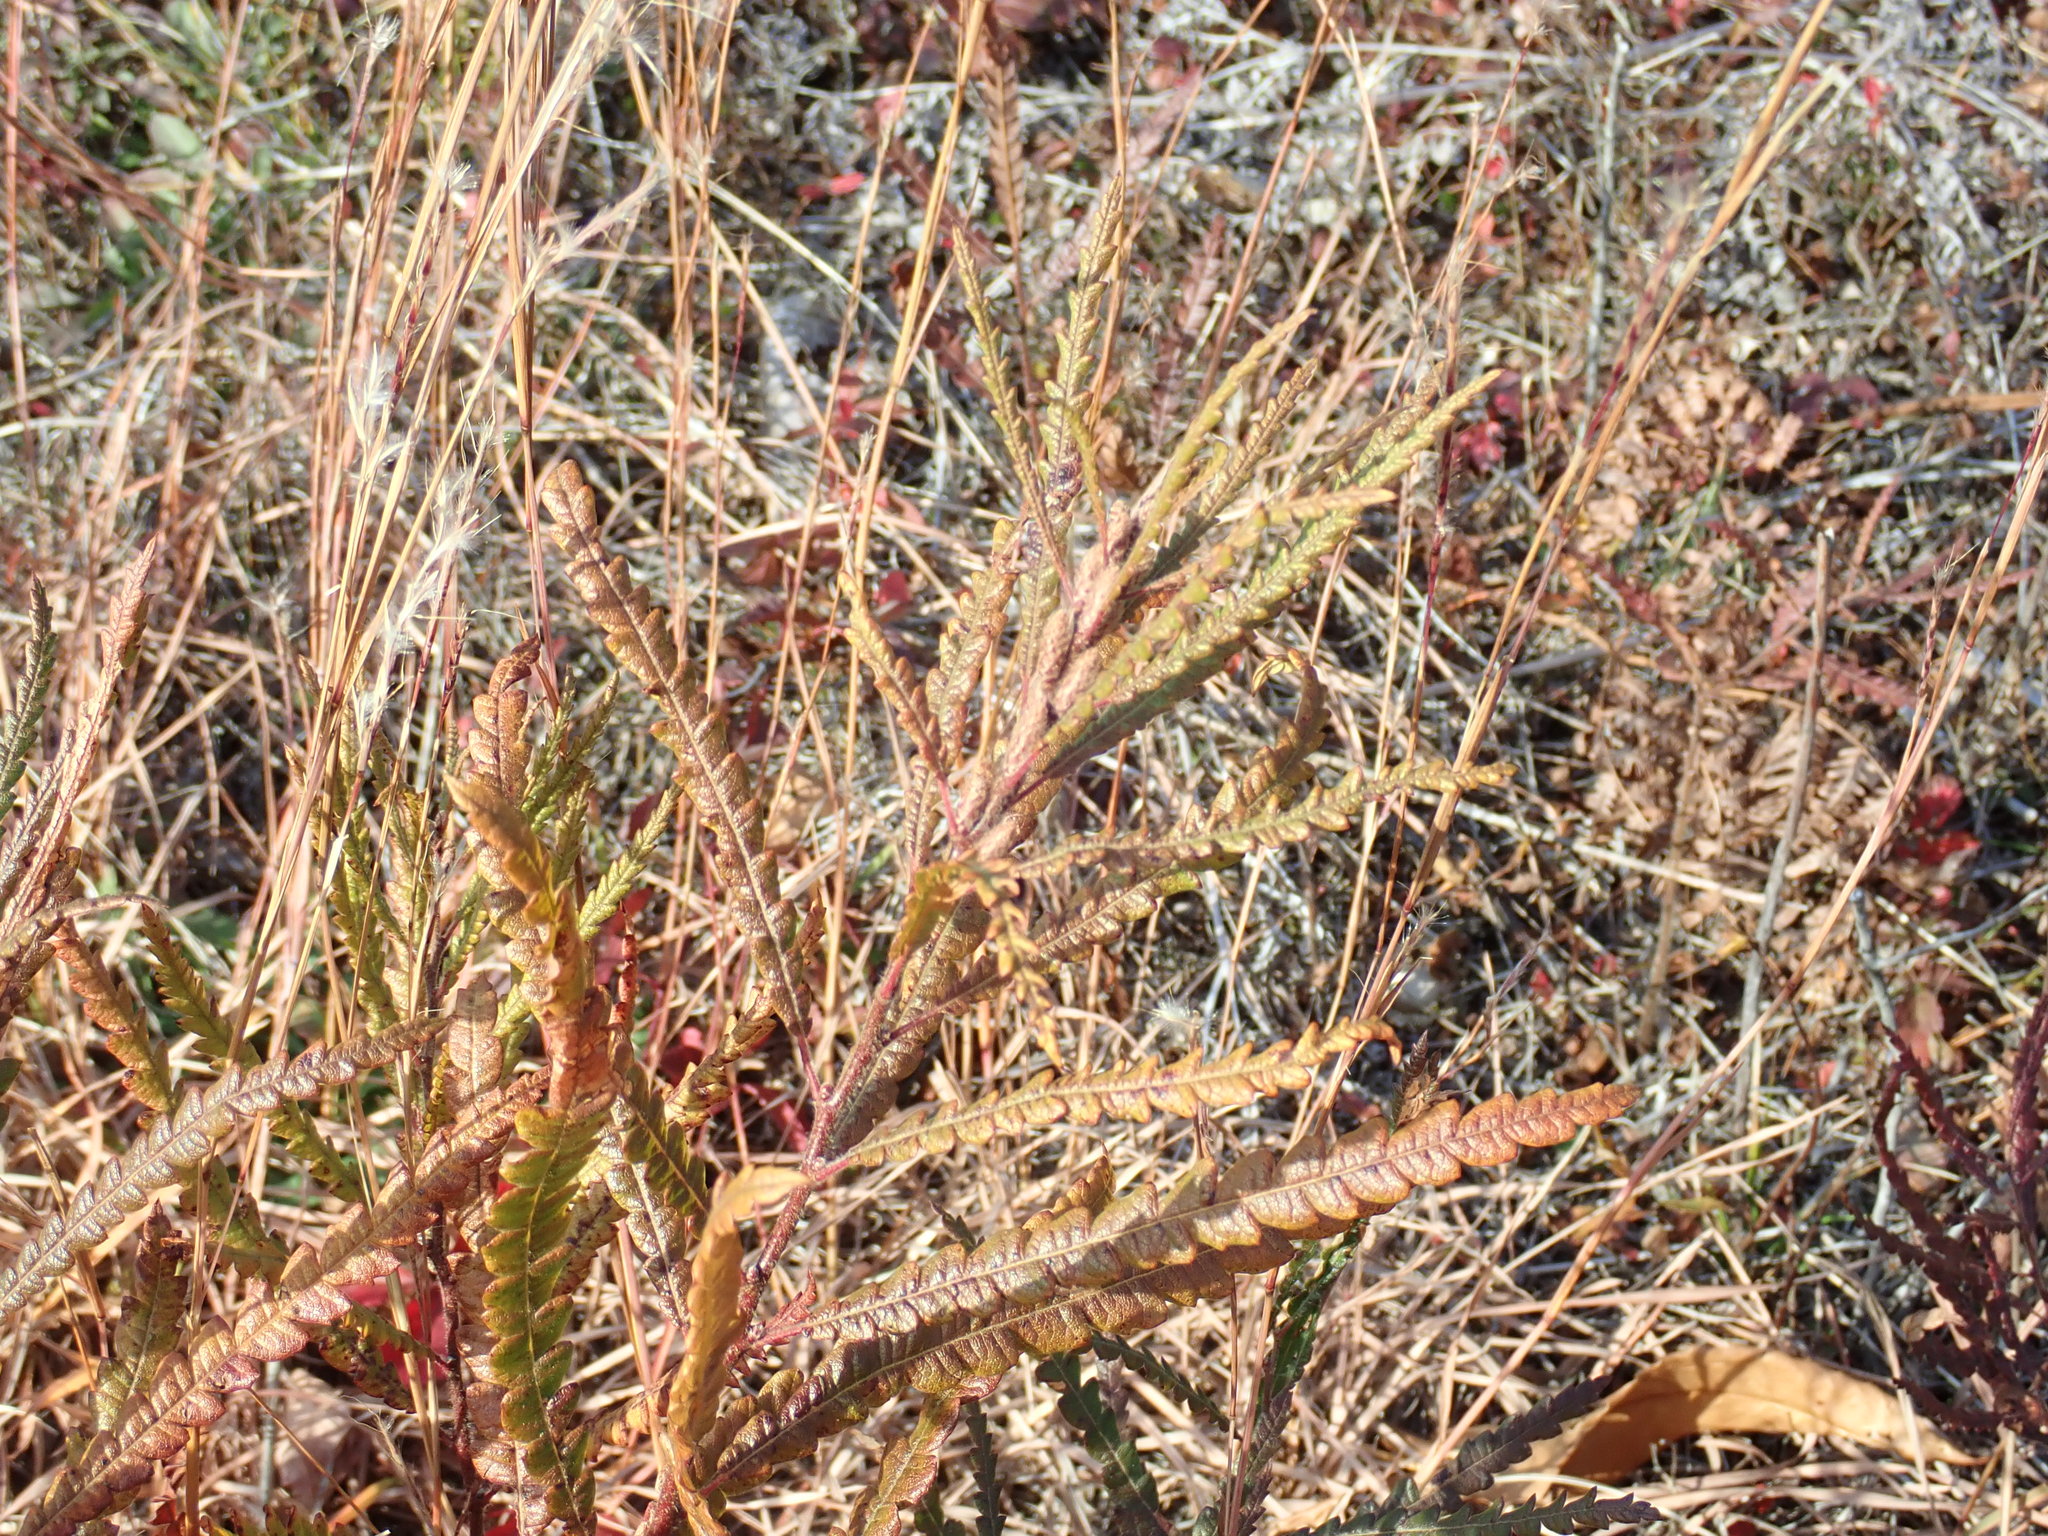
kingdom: Plantae
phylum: Tracheophyta
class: Magnoliopsida
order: Fagales
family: Myricaceae
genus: Comptonia
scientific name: Comptonia peregrina
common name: Sweet-fern
